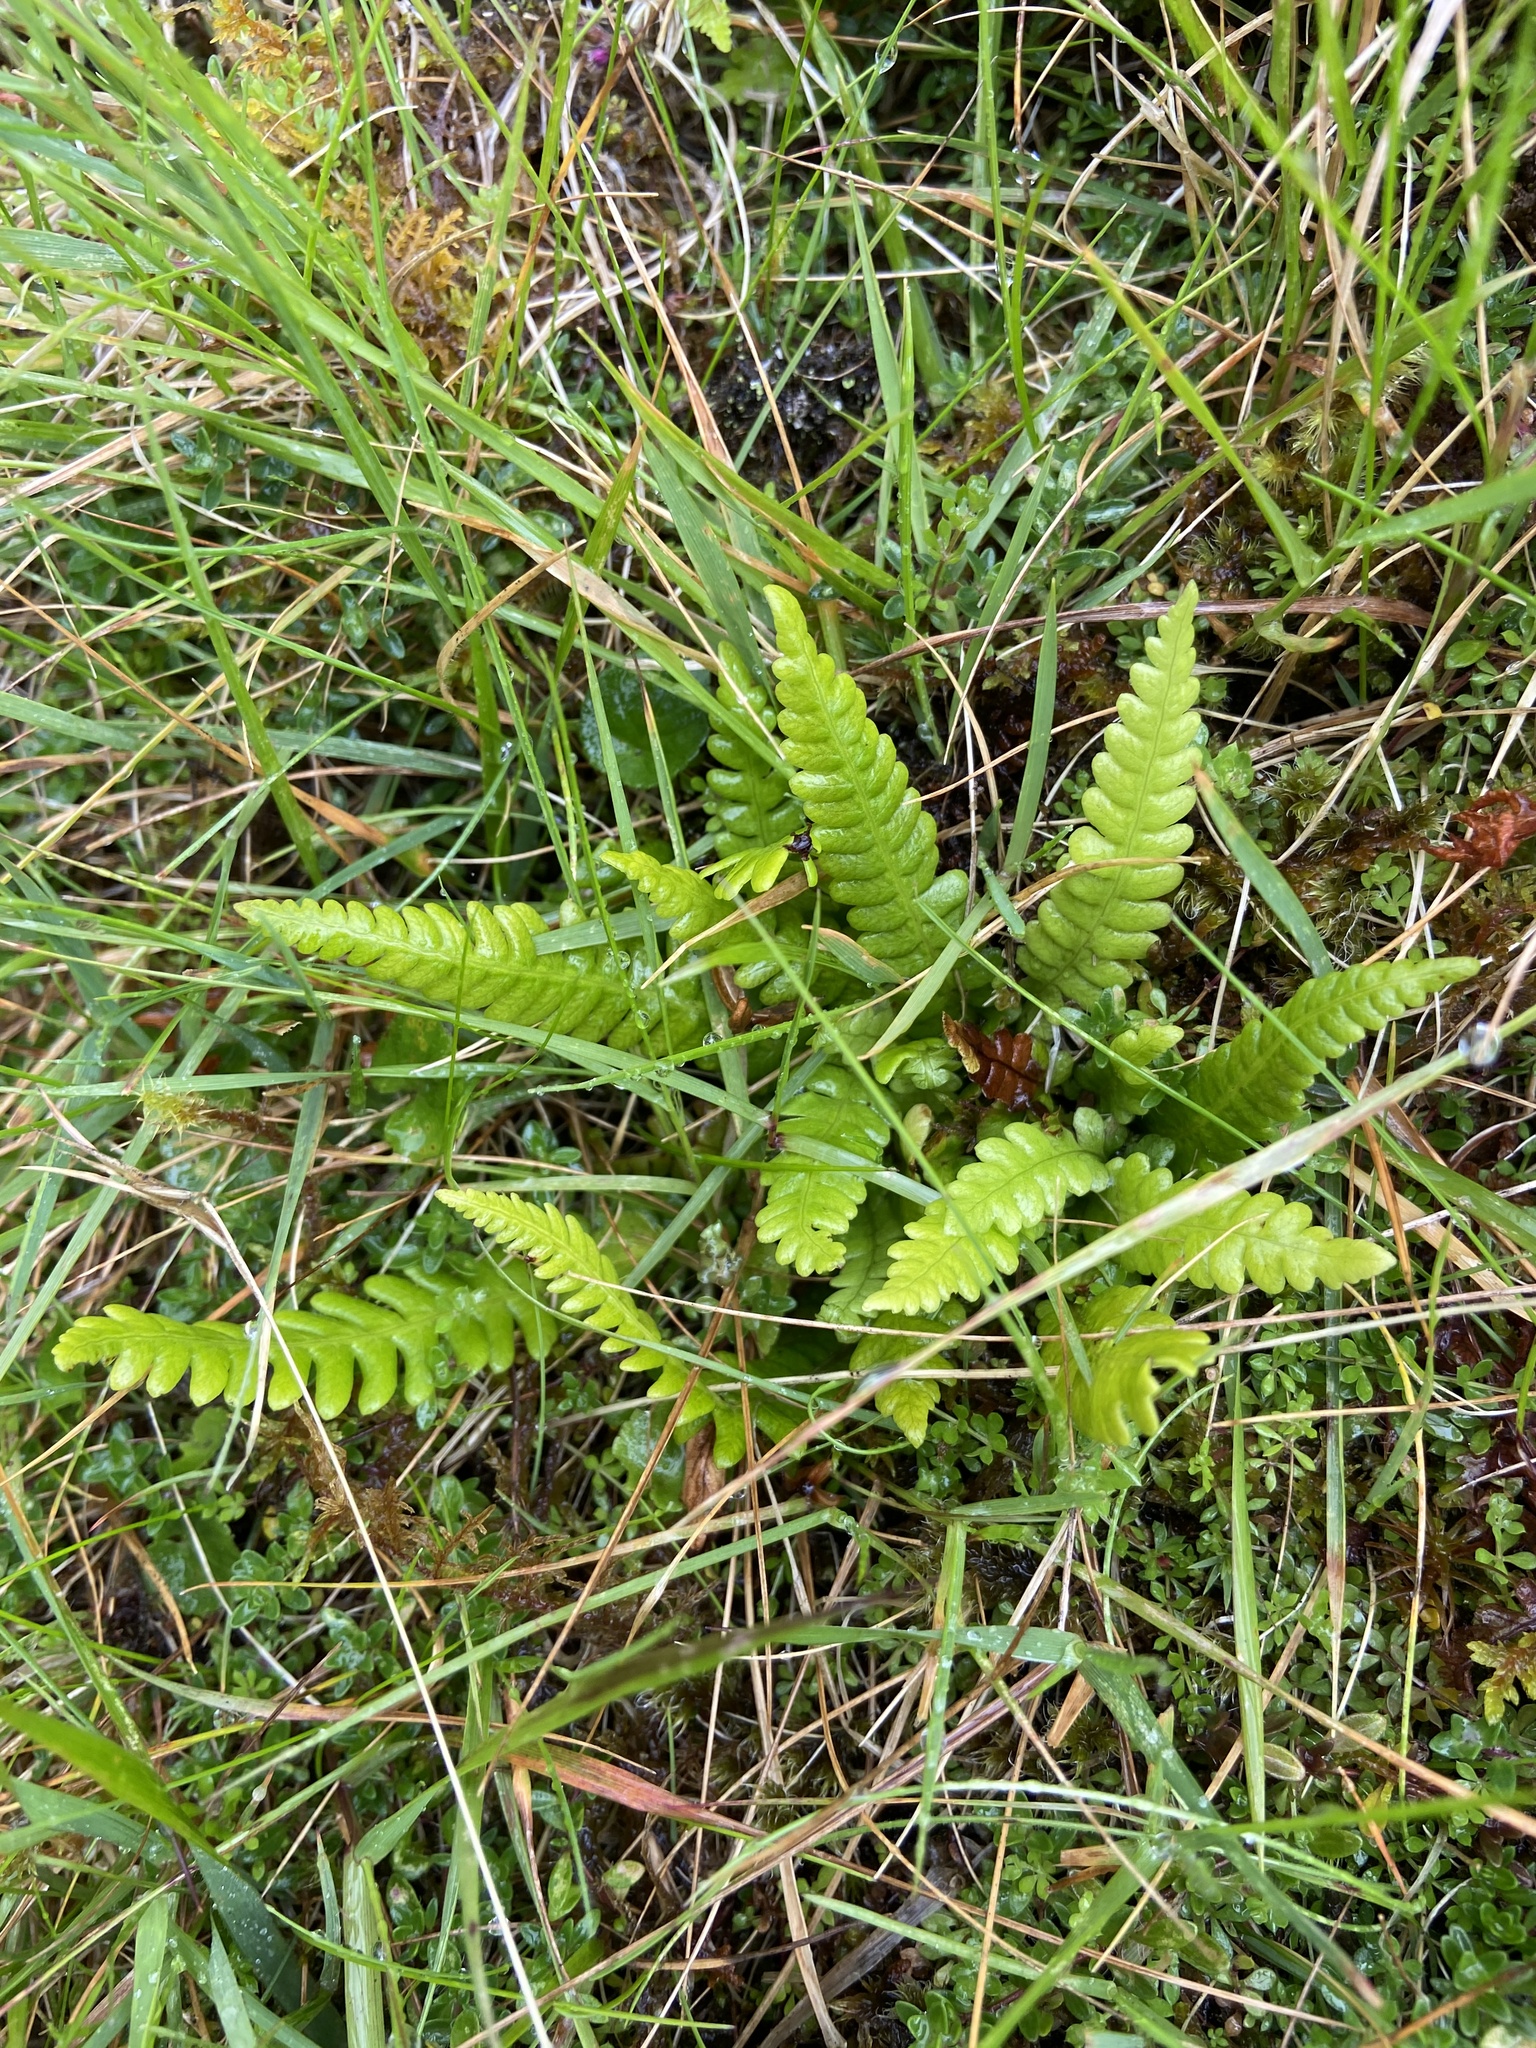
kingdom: Plantae
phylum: Tracheophyta
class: Polypodiopsida
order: Polypodiales
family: Blechnaceae
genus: Struthiopteris
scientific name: Struthiopteris spicant
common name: Deer fern
